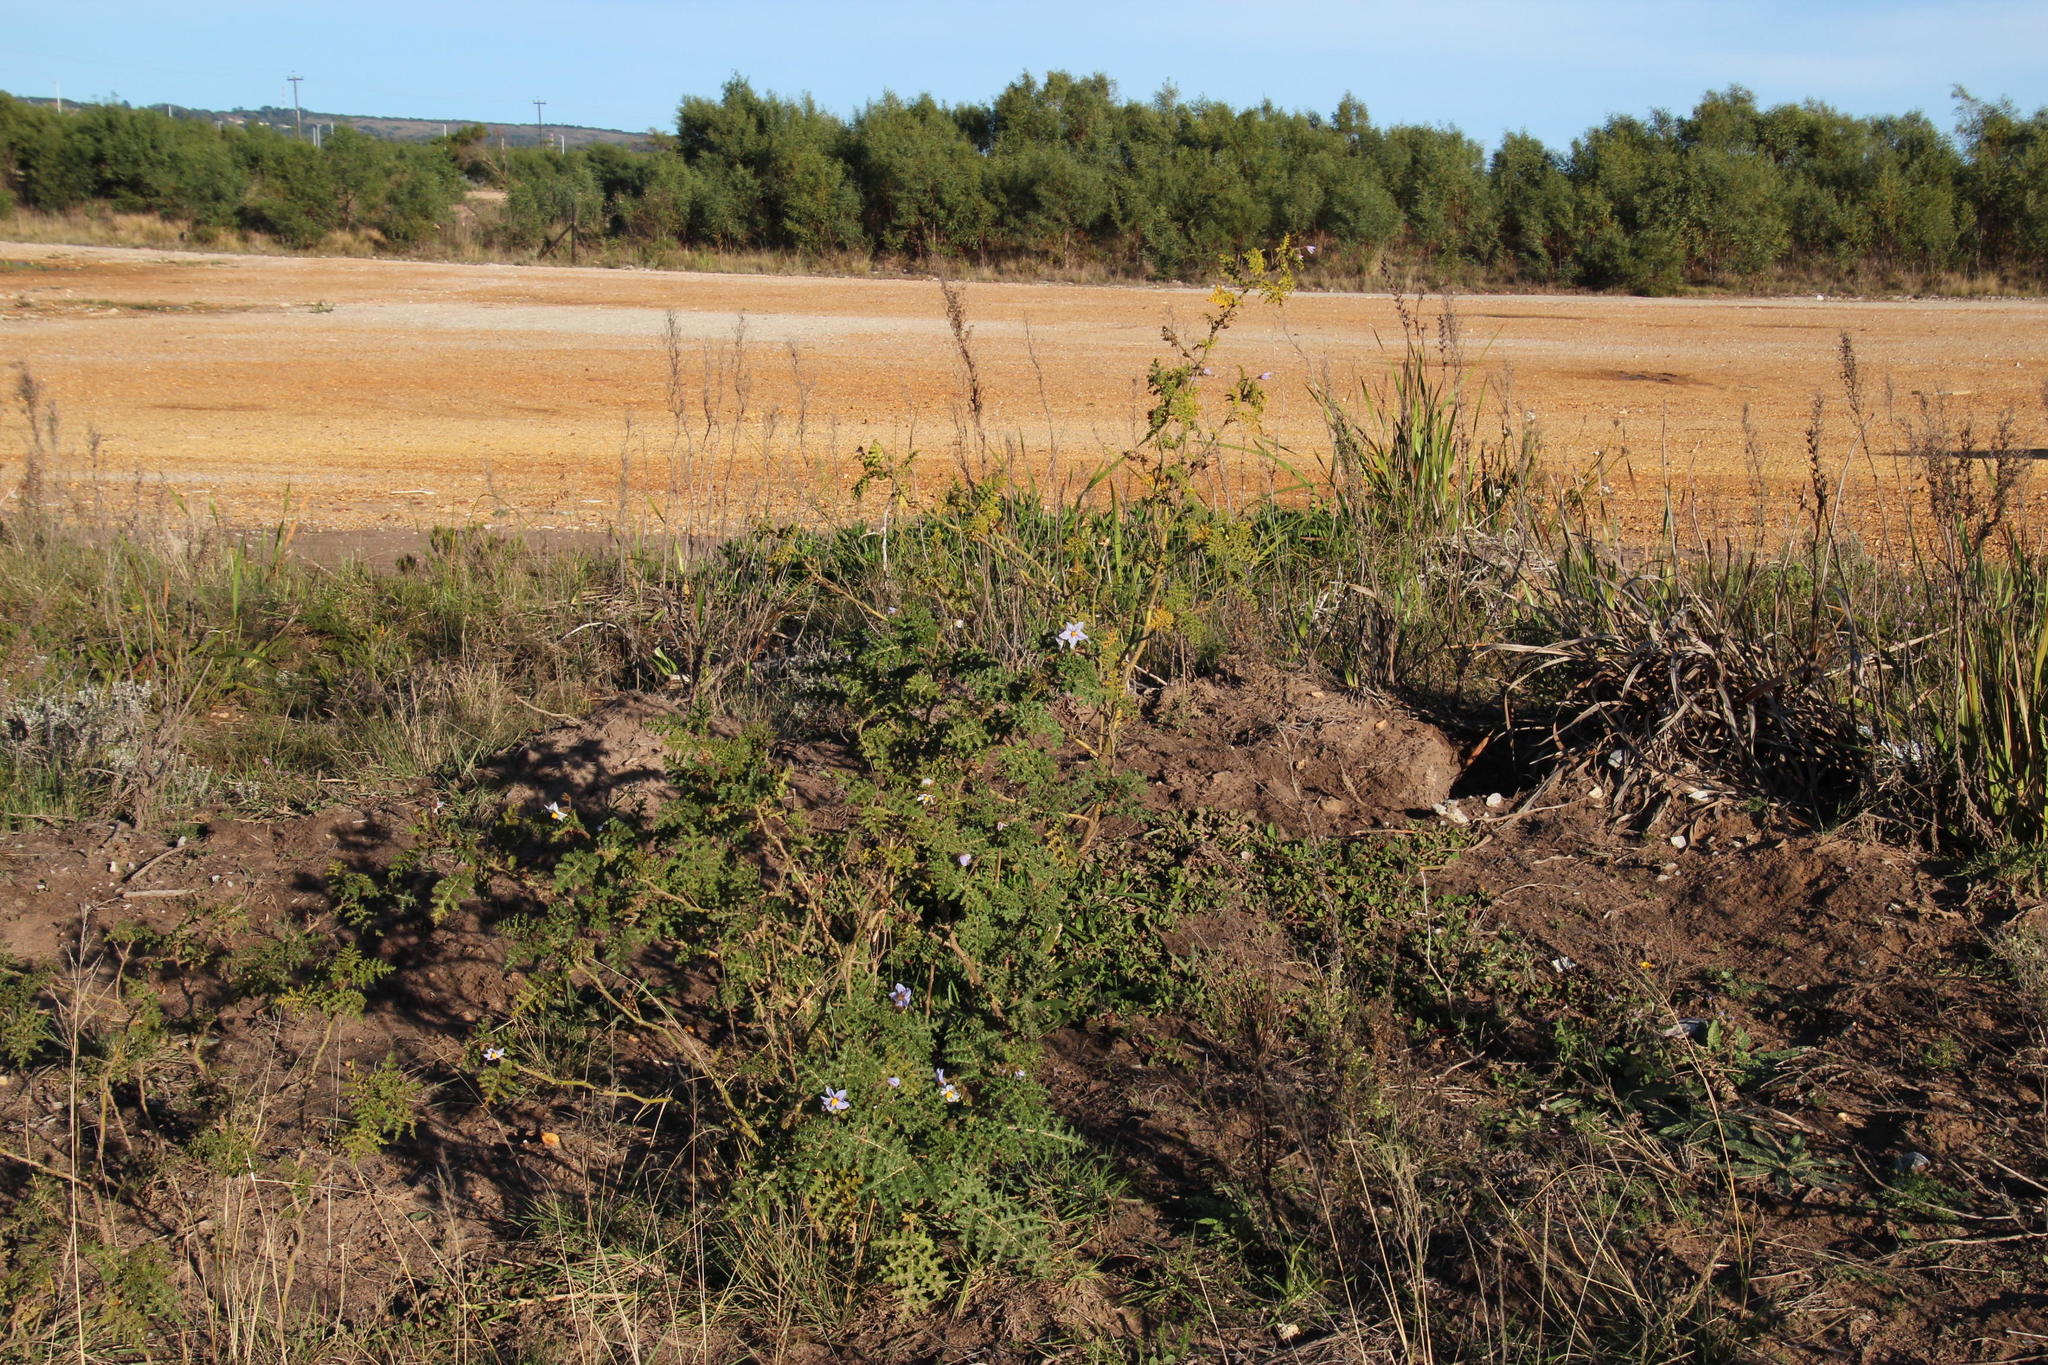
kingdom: Plantae
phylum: Tracheophyta
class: Magnoliopsida
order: Solanales
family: Solanaceae
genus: Solanum
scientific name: Solanum sisymbriifolium
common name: Red buffalo-bur
